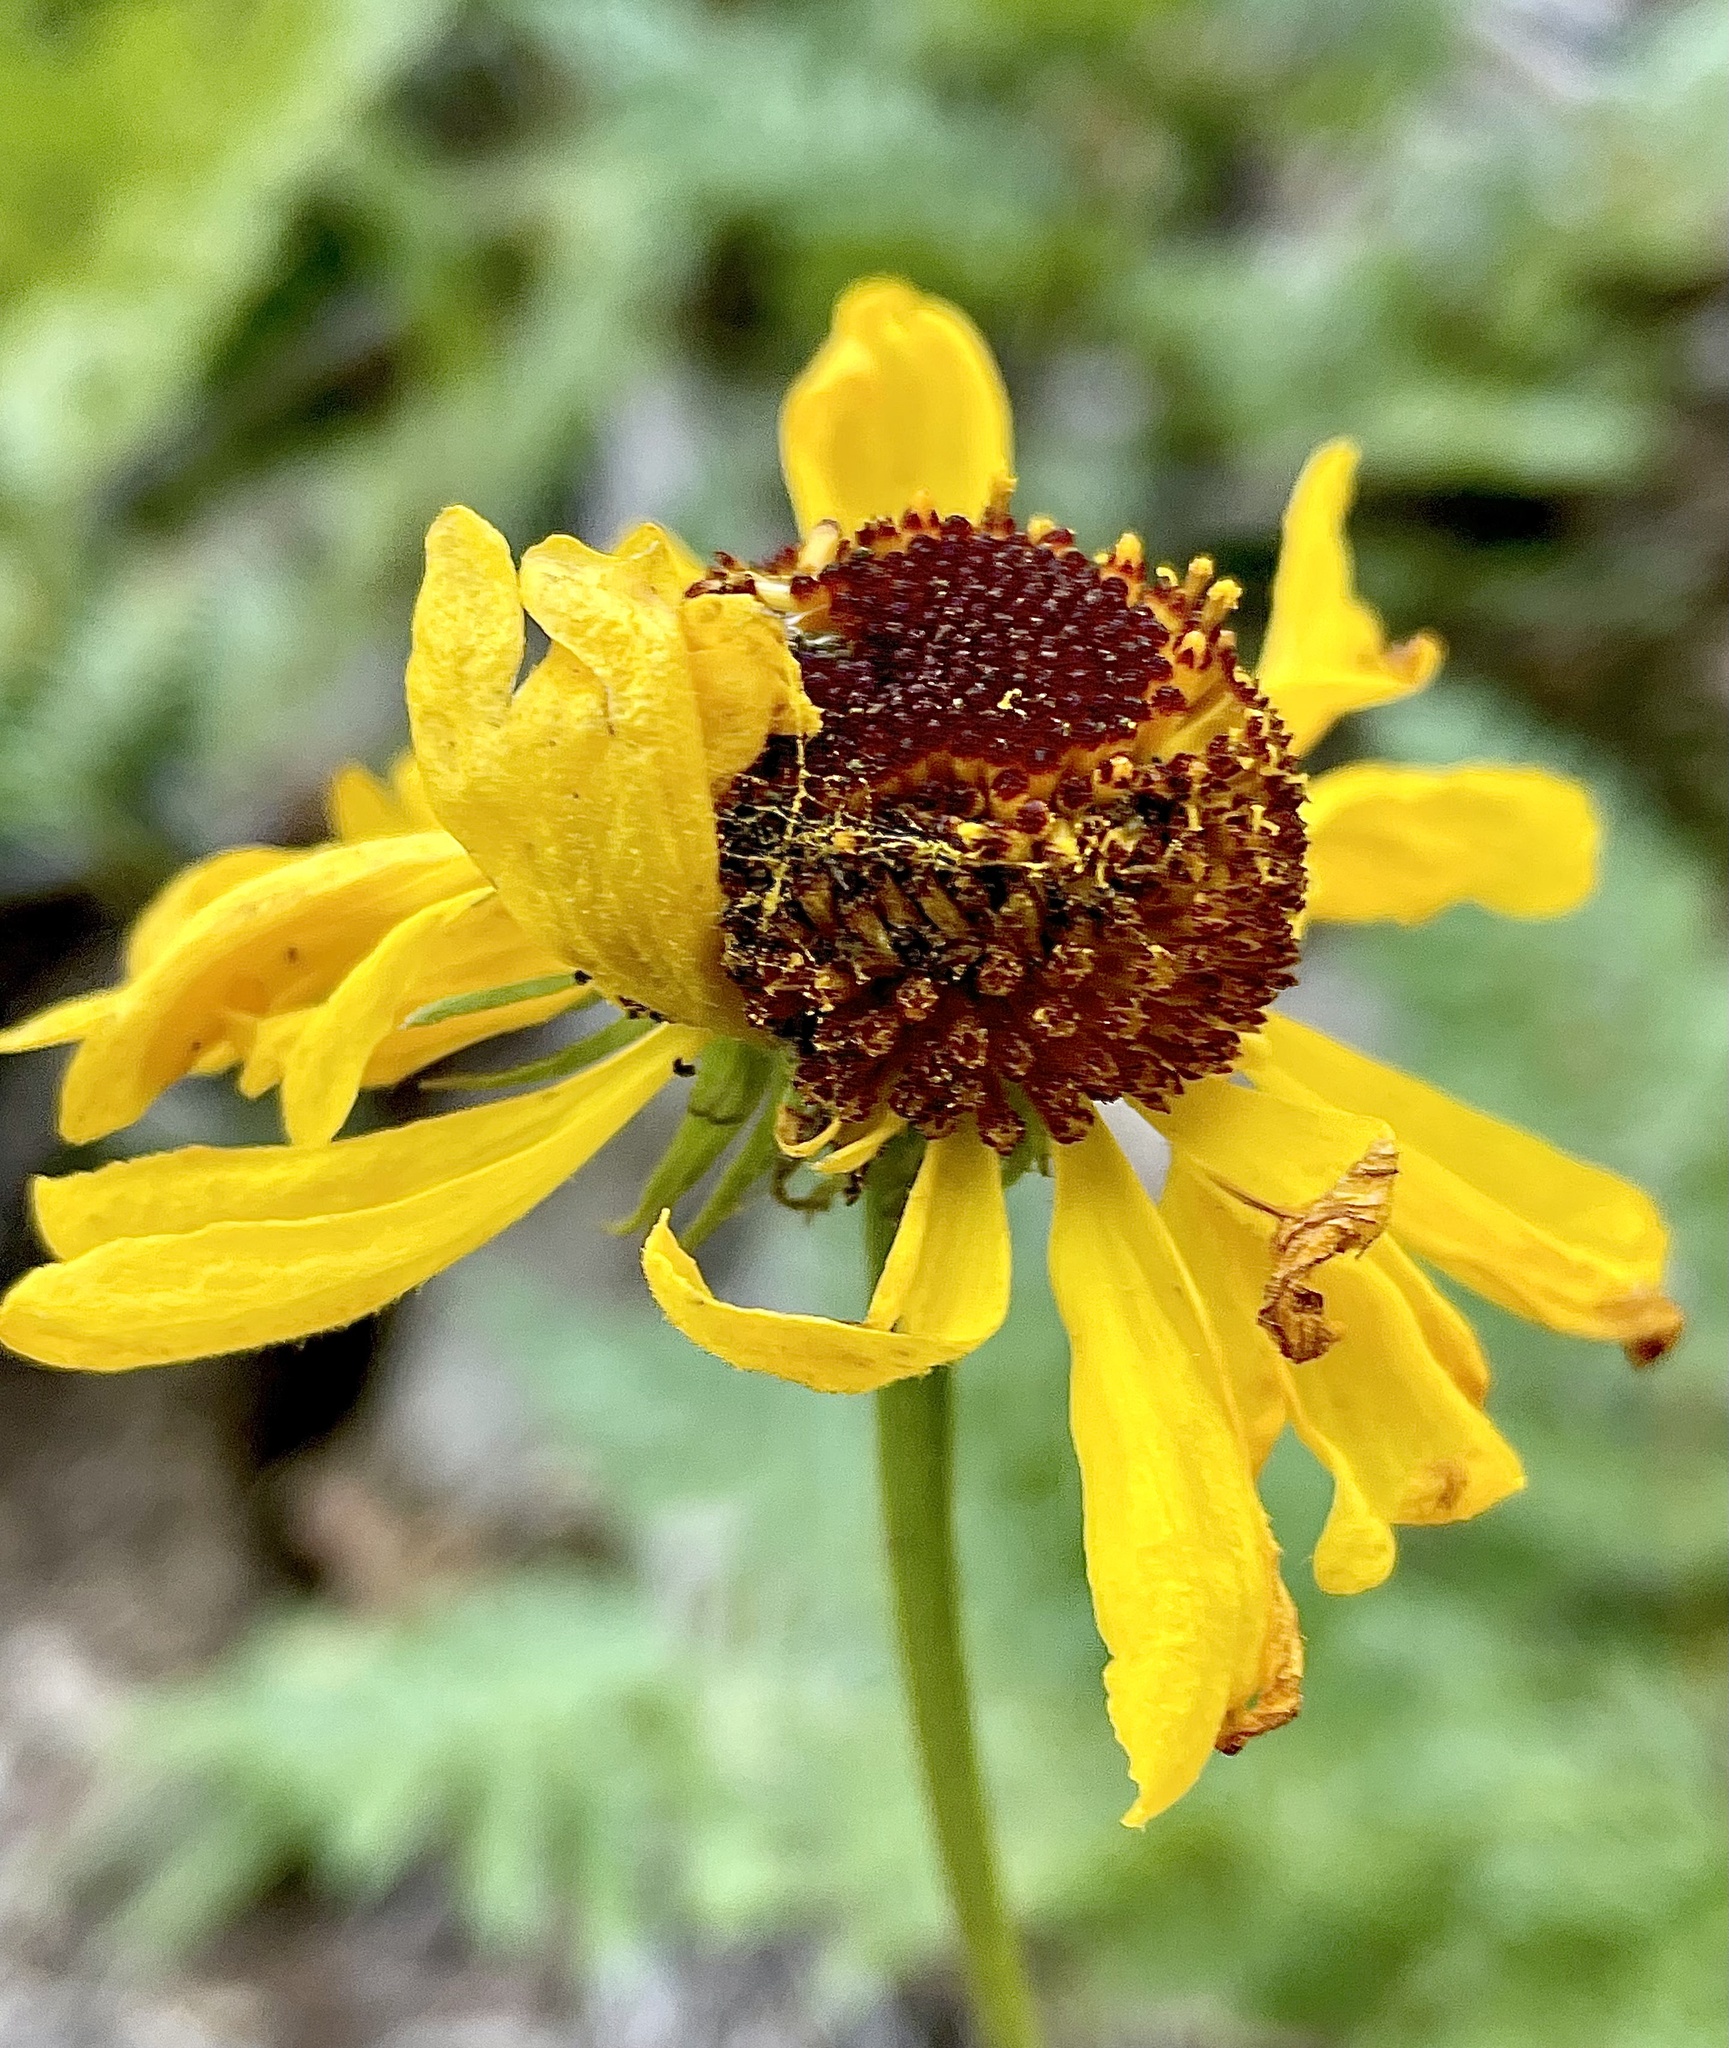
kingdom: Plantae
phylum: Tracheophyta
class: Magnoliopsida
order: Asterales
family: Asteraceae
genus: Helenium
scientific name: Helenium bigelovii
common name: Bigelow's sneezeweed
